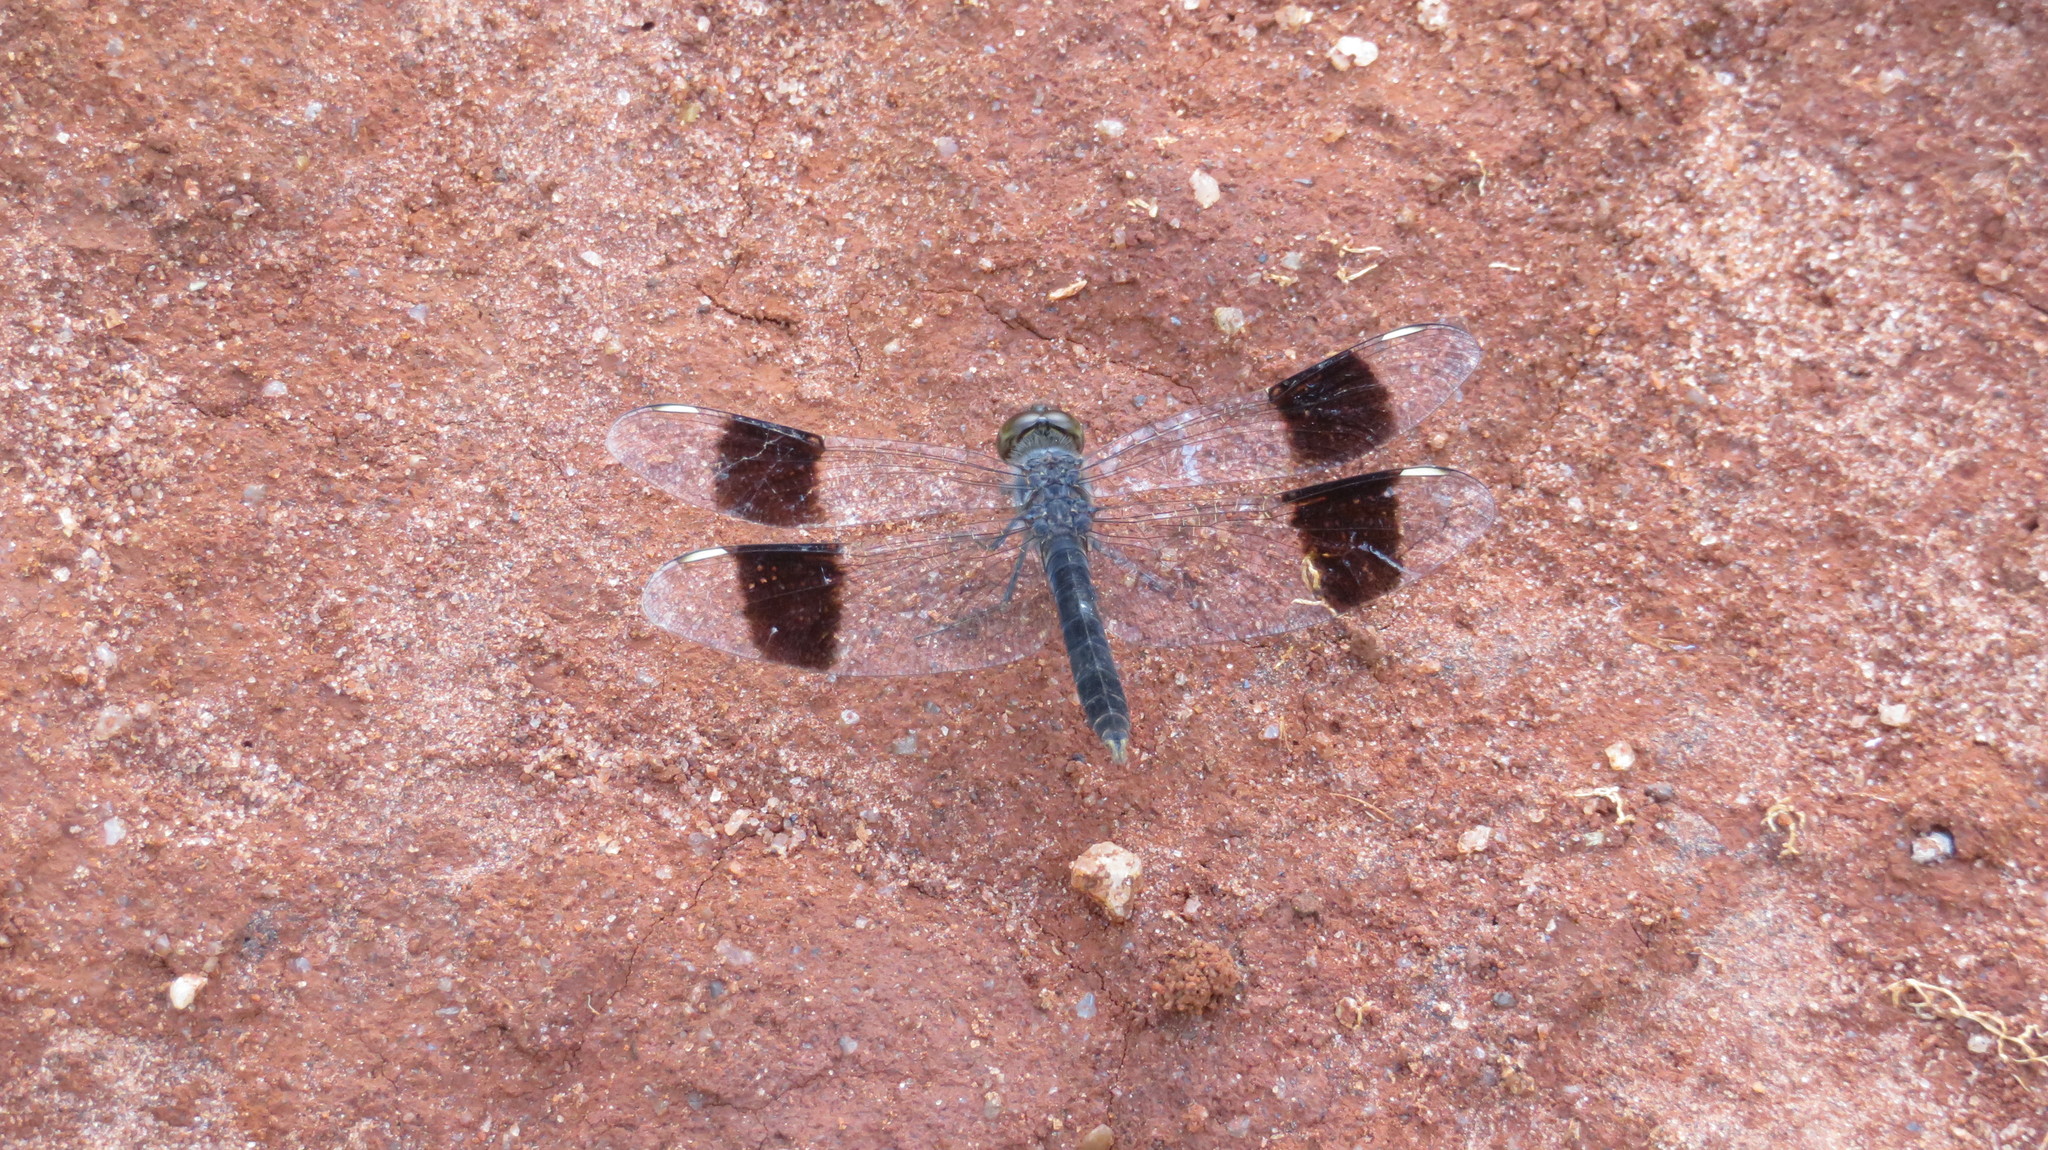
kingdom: Animalia
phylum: Arthropoda
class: Insecta
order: Odonata
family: Libellulidae
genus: Brachythemis
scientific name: Brachythemis leucosticta
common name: Banded groundling
